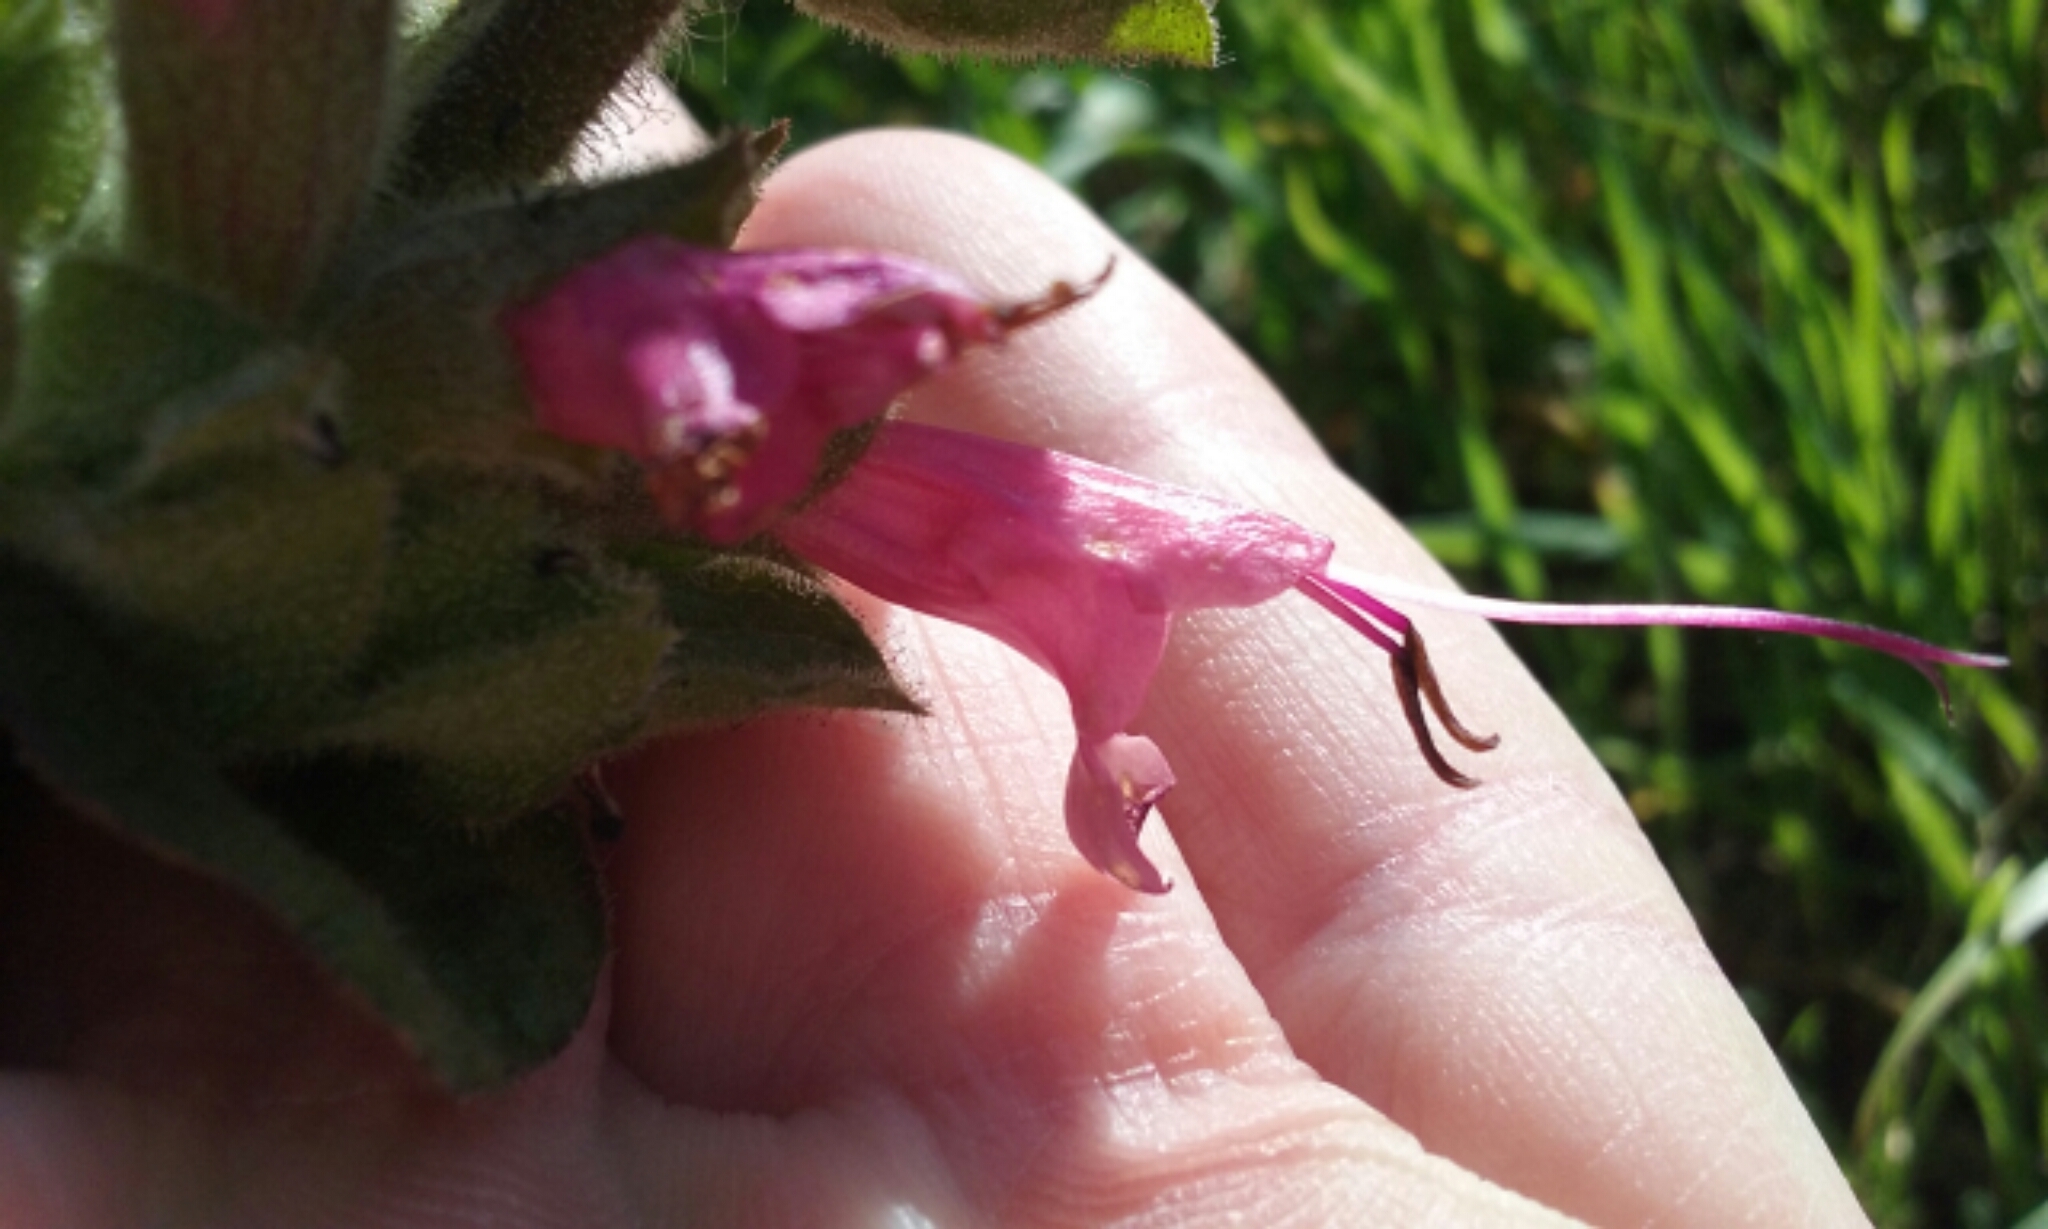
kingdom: Plantae
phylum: Tracheophyta
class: Magnoliopsida
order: Lamiales
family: Lamiaceae
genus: Salvia
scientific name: Salvia spathacea
